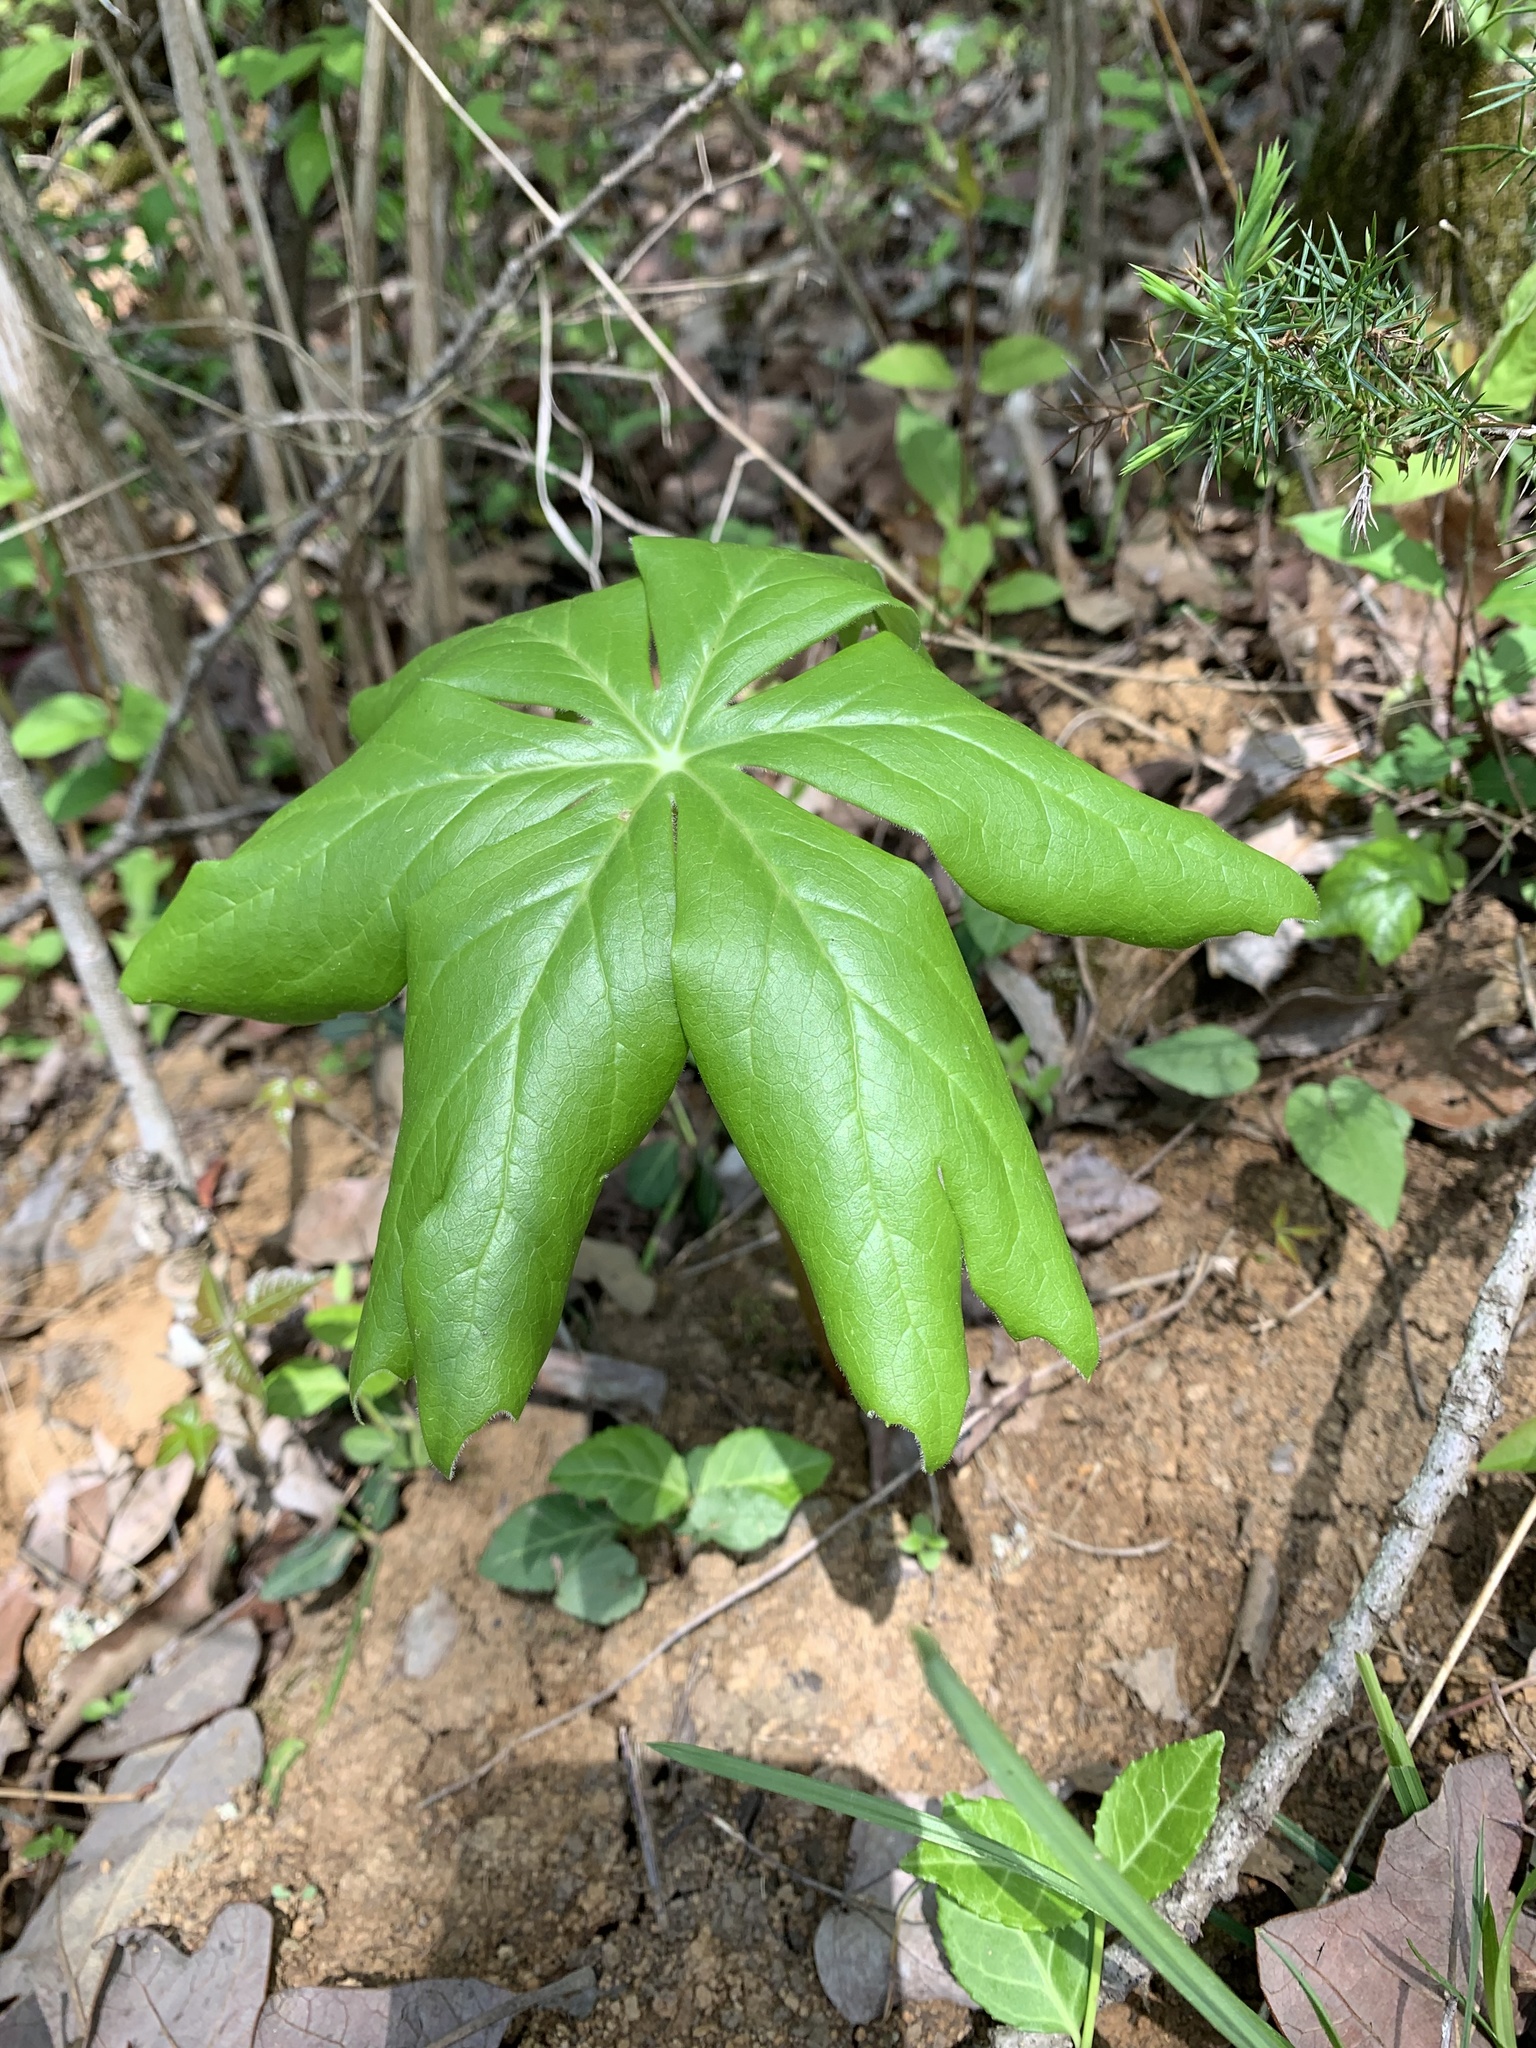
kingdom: Plantae
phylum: Tracheophyta
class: Magnoliopsida
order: Ranunculales
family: Berberidaceae
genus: Podophyllum
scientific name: Podophyllum peltatum
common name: Wild mandrake
